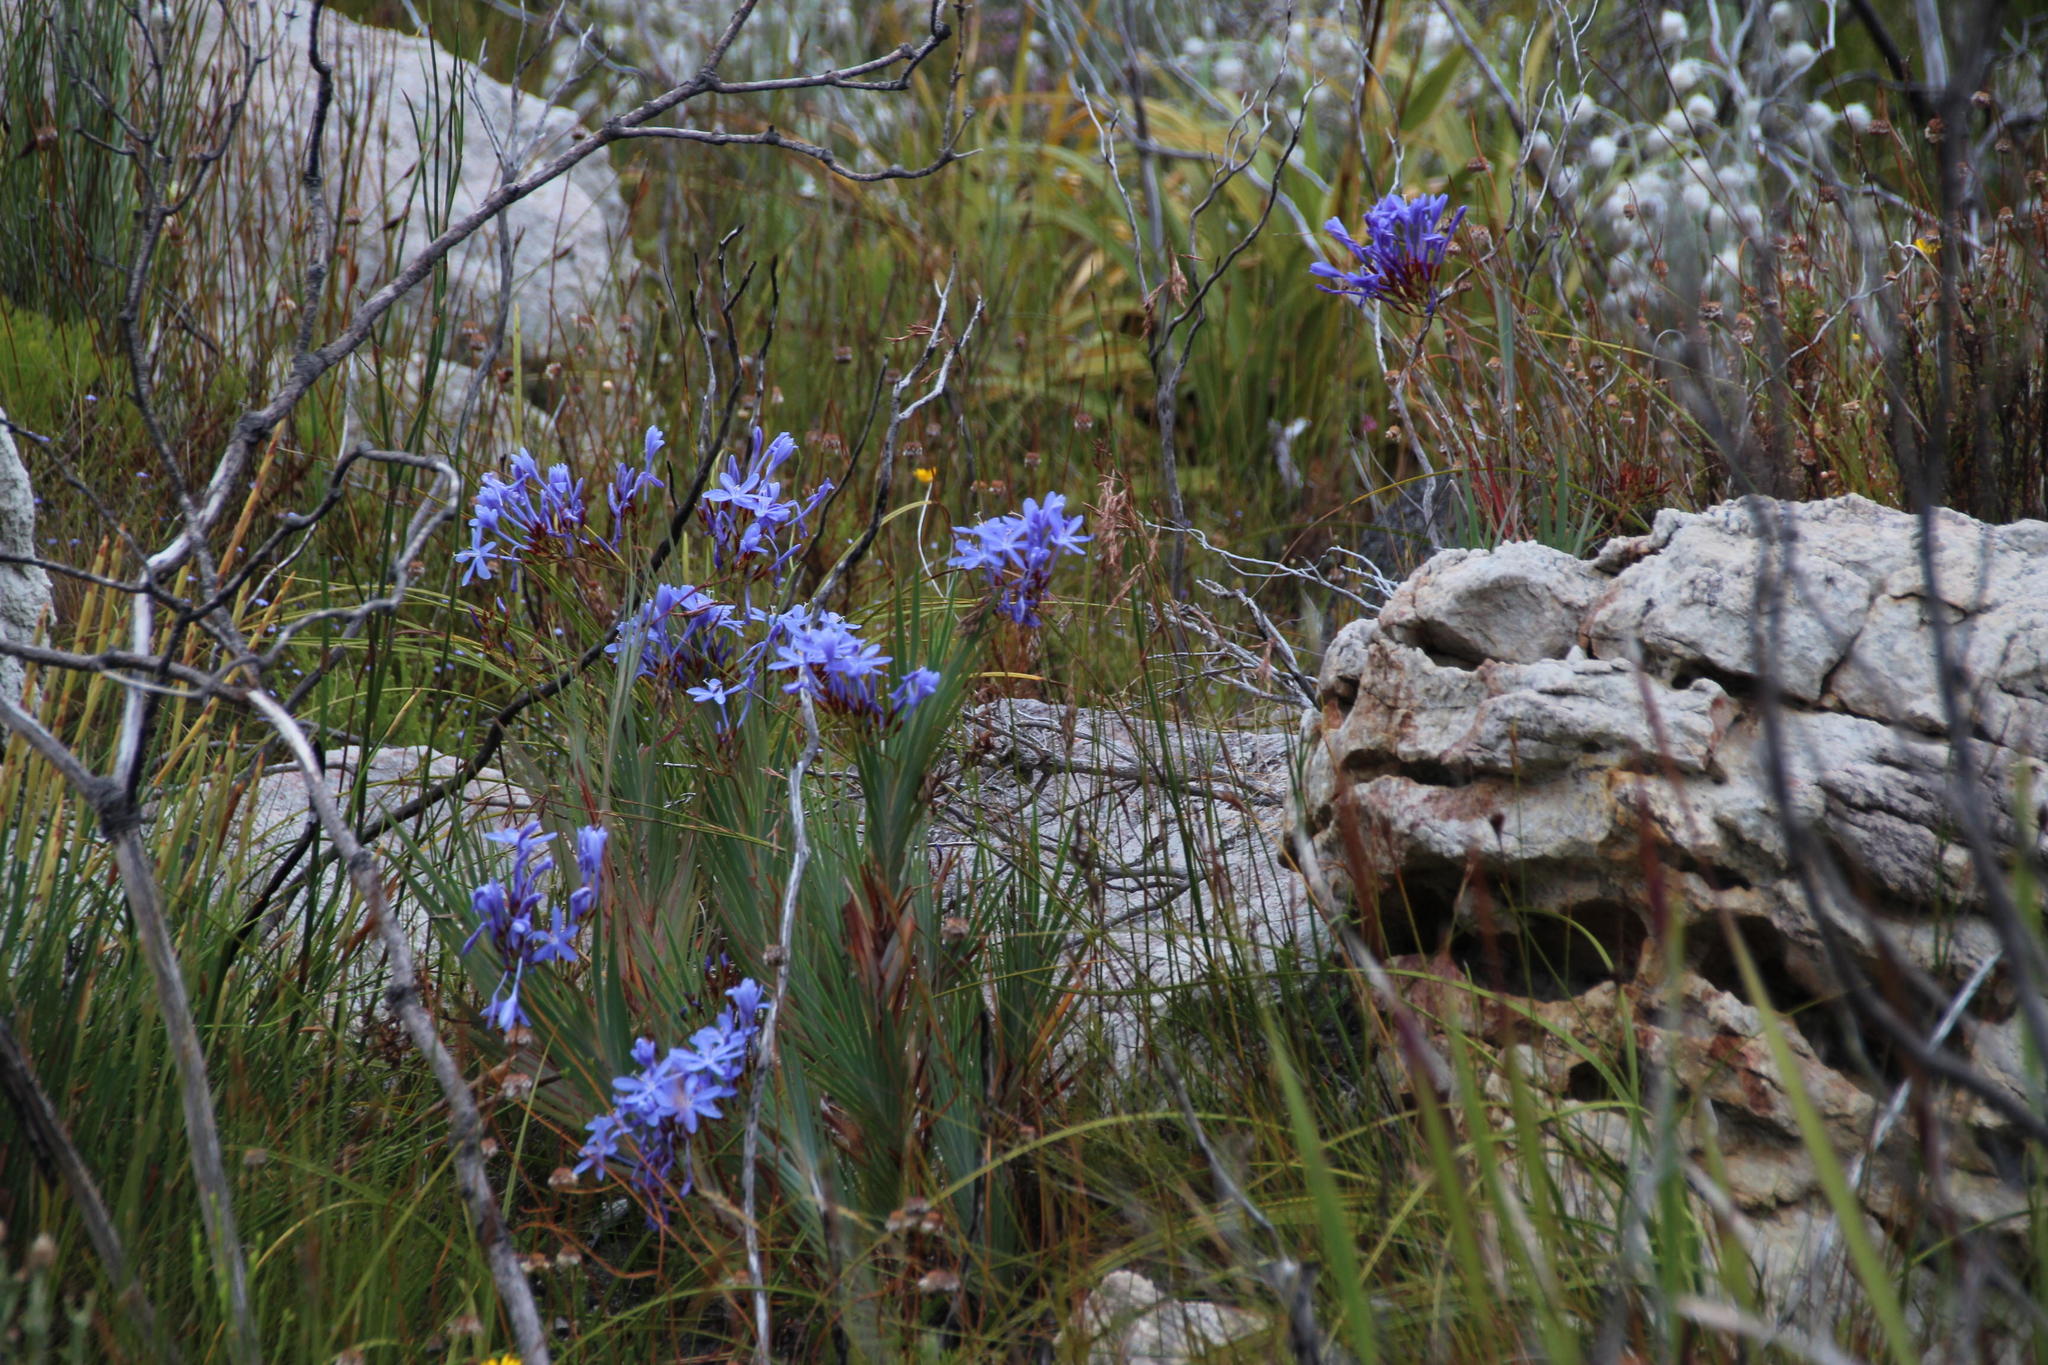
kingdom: Plantae
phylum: Tracheophyta
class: Liliopsida
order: Asparagales
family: Iridaceae
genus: Nivenia
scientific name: Nivenia stokoei
